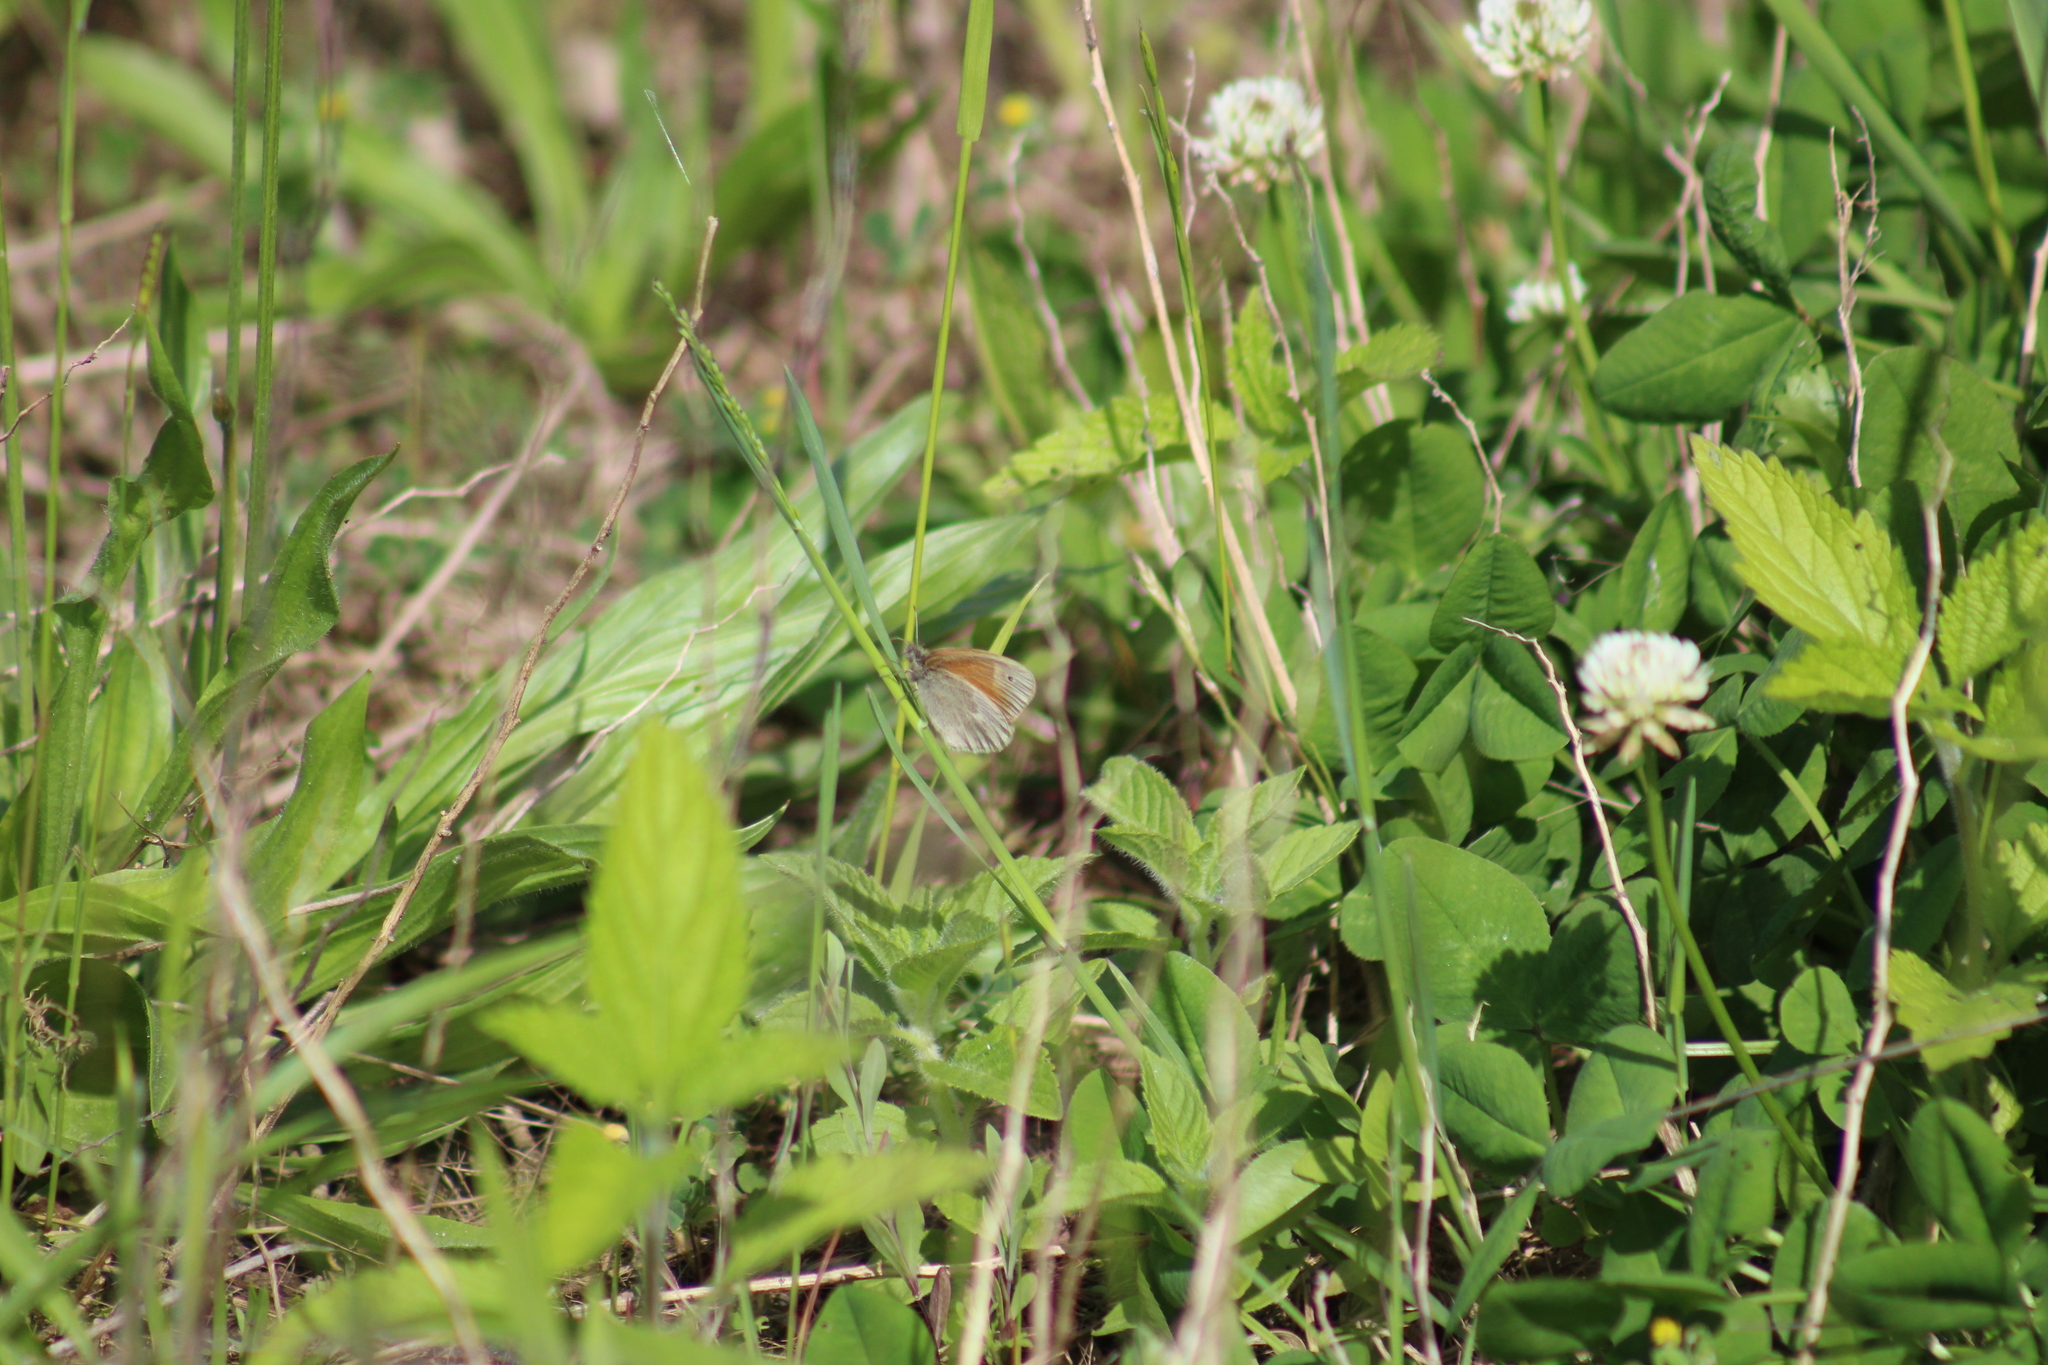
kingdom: Animalia
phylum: Arthropoda
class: Insecta
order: Lepidoptera
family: Nymphalidae
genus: Coenonympha
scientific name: Coenonympha california
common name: Common ringlet
